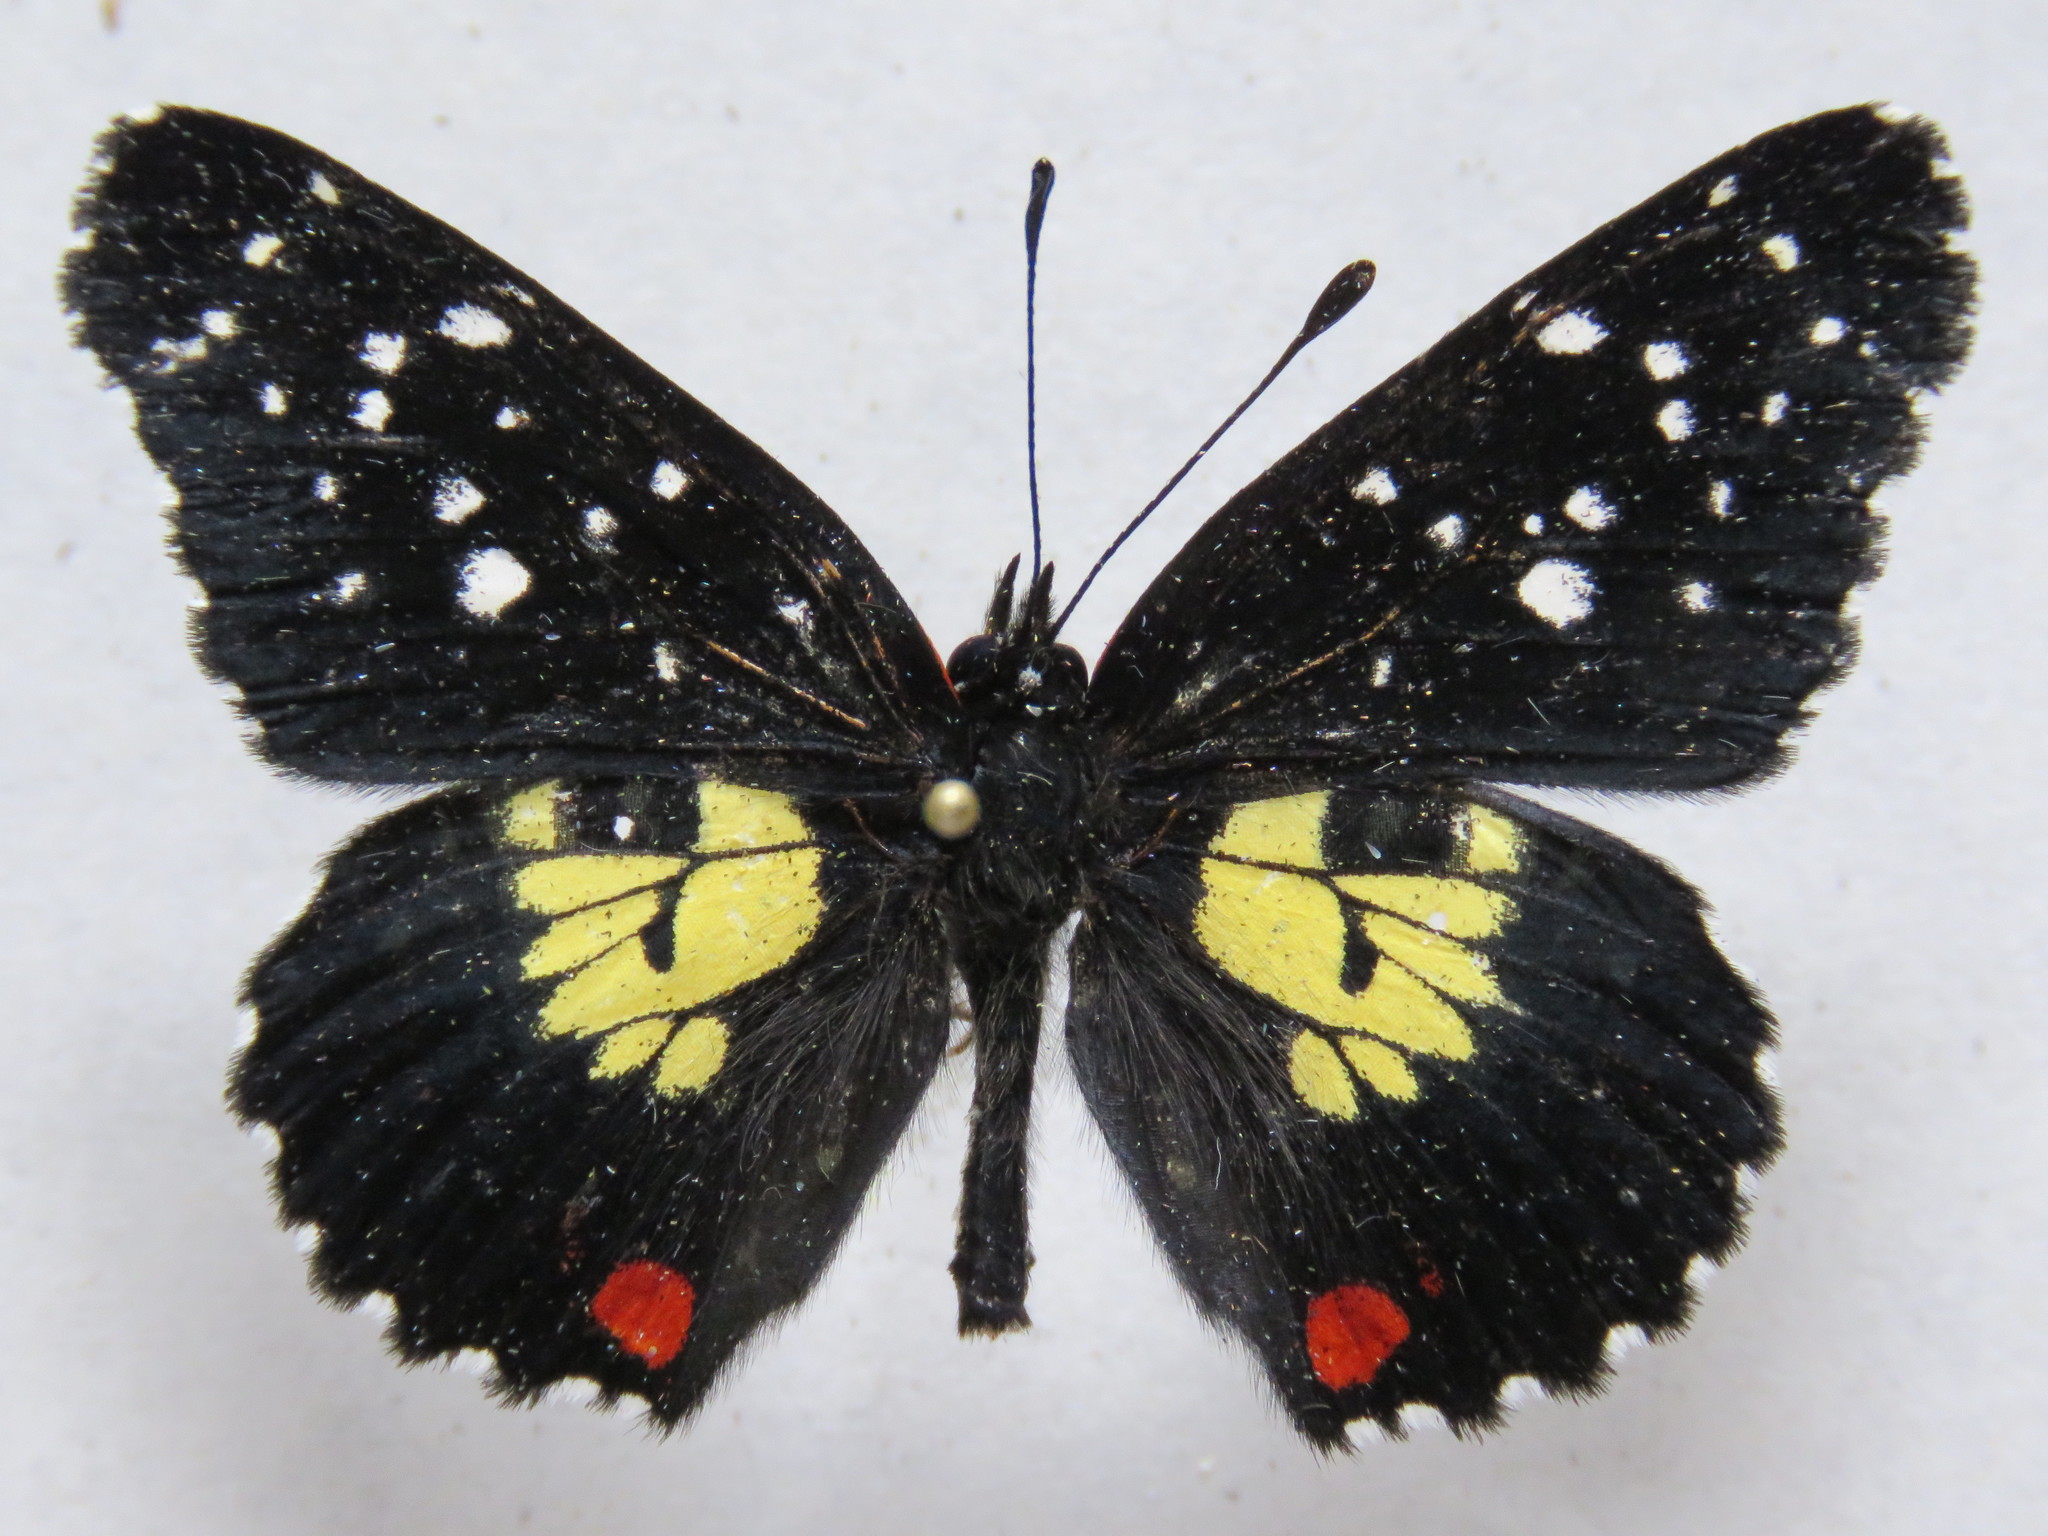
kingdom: Animalia
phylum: Arthropoda
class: Insecta
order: Lepidoptera
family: Nymphalidae
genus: Chlosyne
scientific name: Chlosyne erodyle
